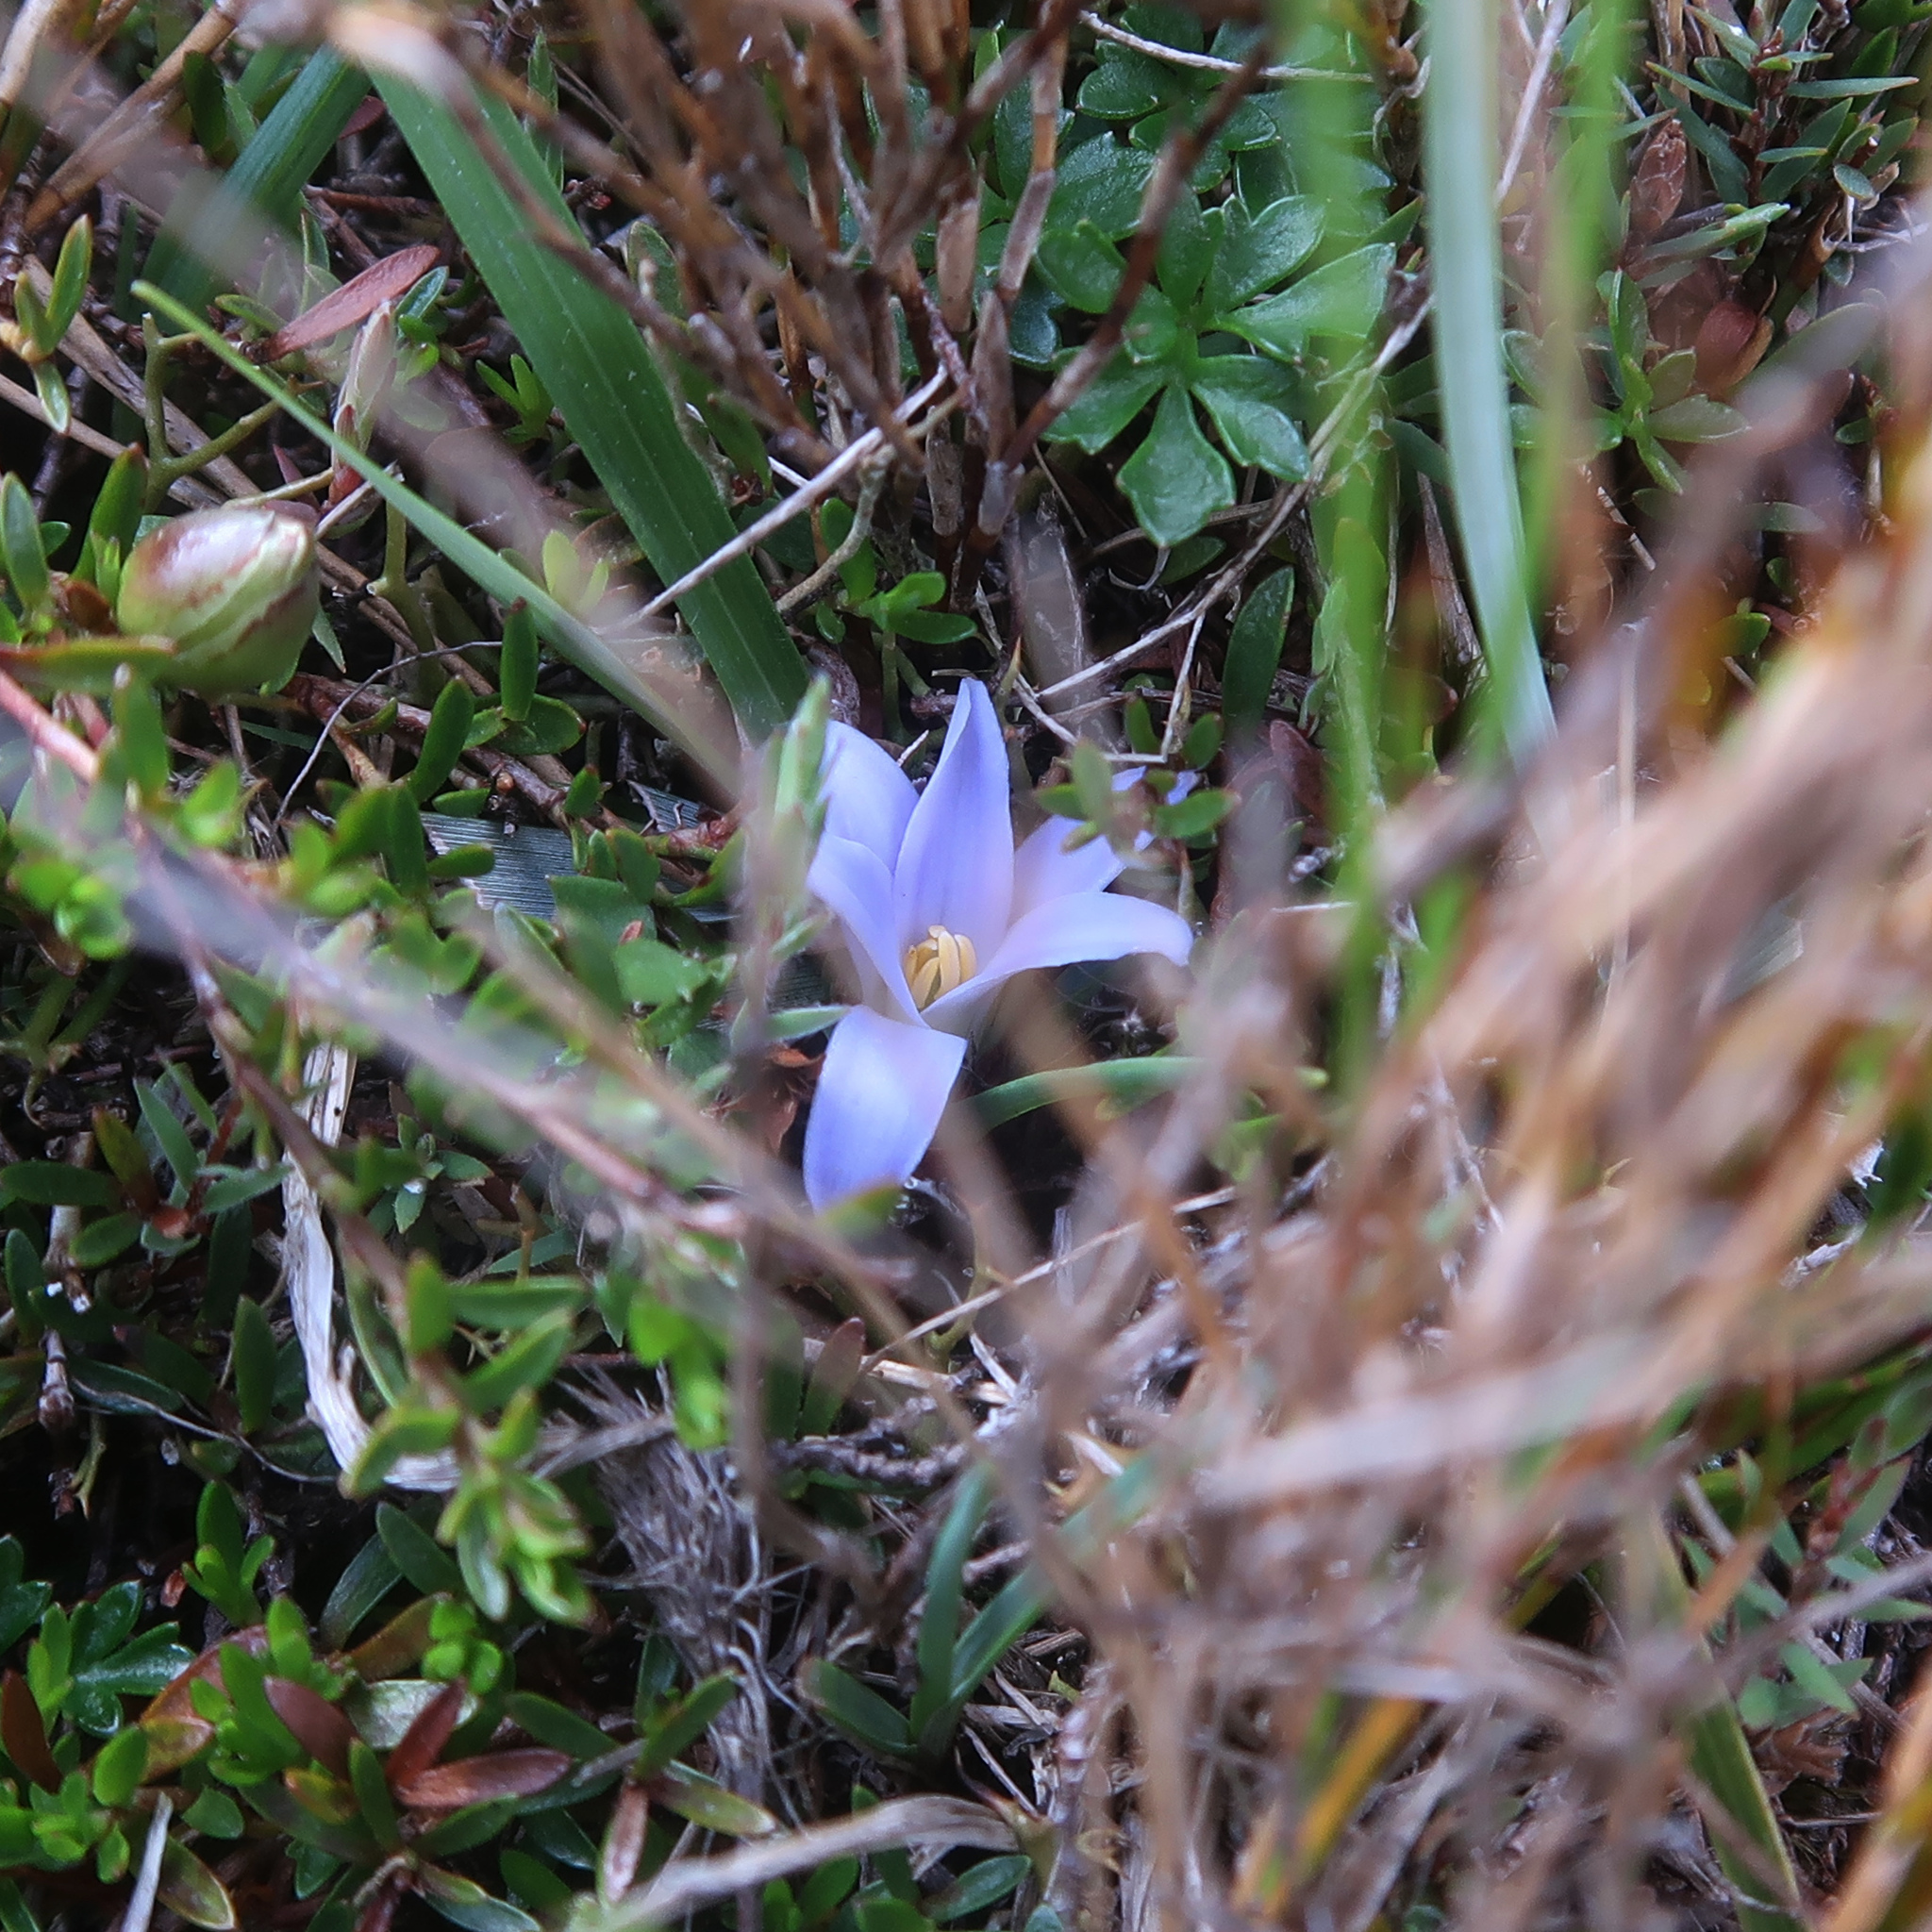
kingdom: Plantae
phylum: Tracheophyta
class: Liliopsida
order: Asparagales
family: Asphodelaceae
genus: Herpolirion
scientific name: Herpolirion novae-zelandiae
